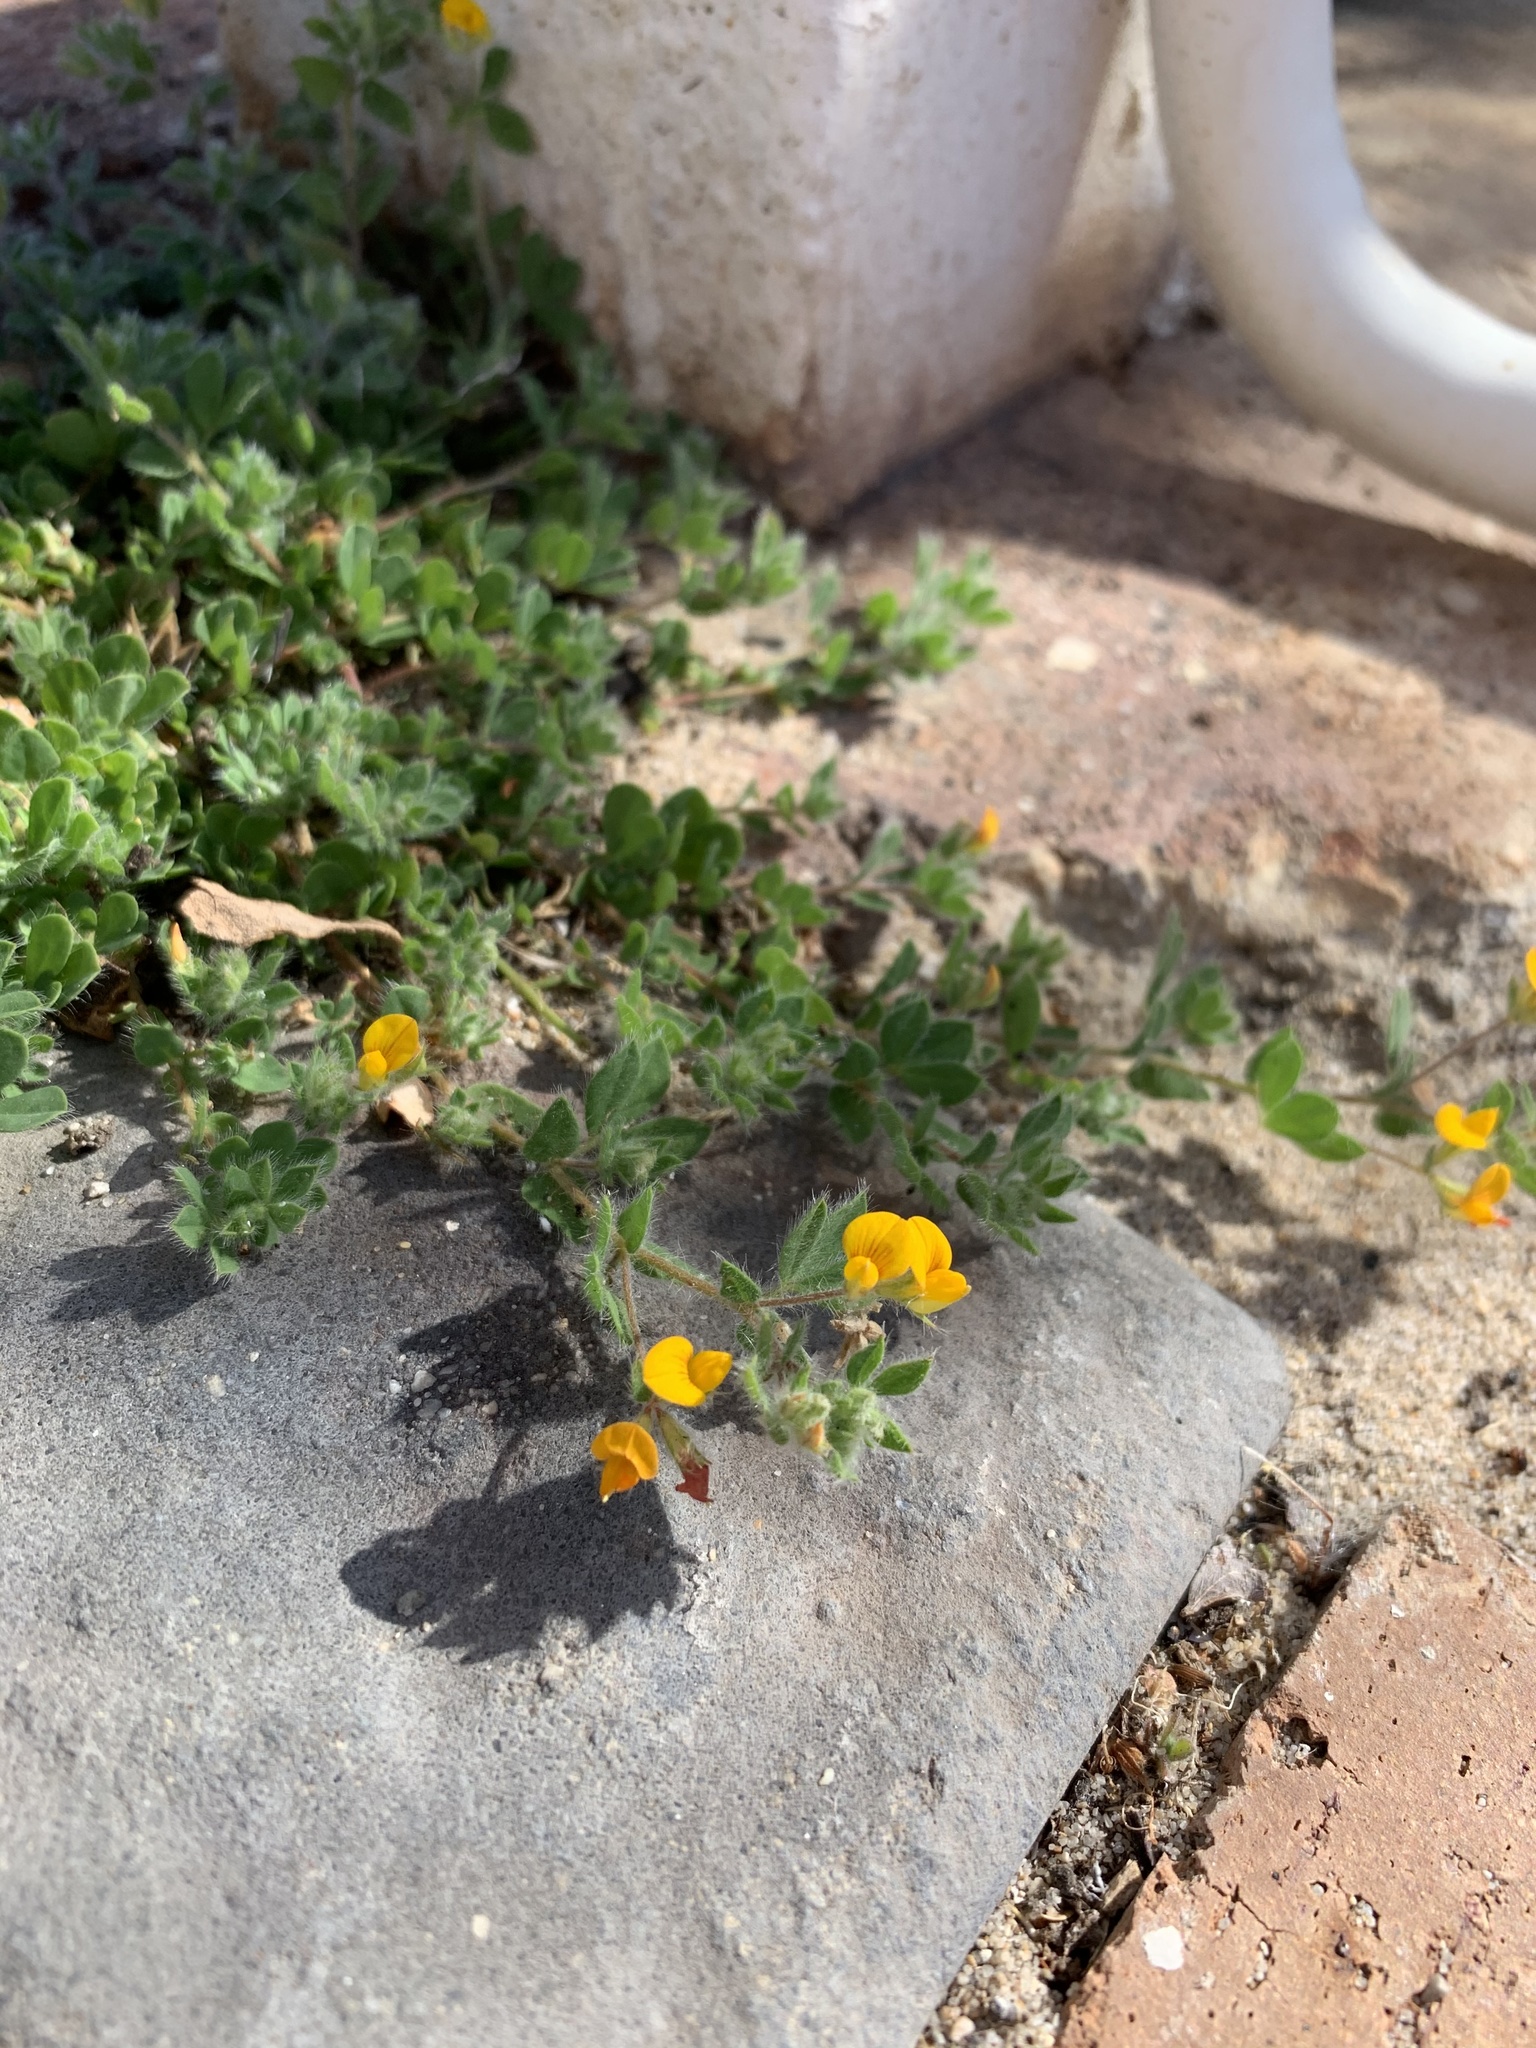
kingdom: Plantae
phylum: Tracheophyta
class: Magnoliopsida
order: Fabales
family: Fabaceae
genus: Lotus
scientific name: Lotus subbiflorus
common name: Hairy bird's-foot trefoil
